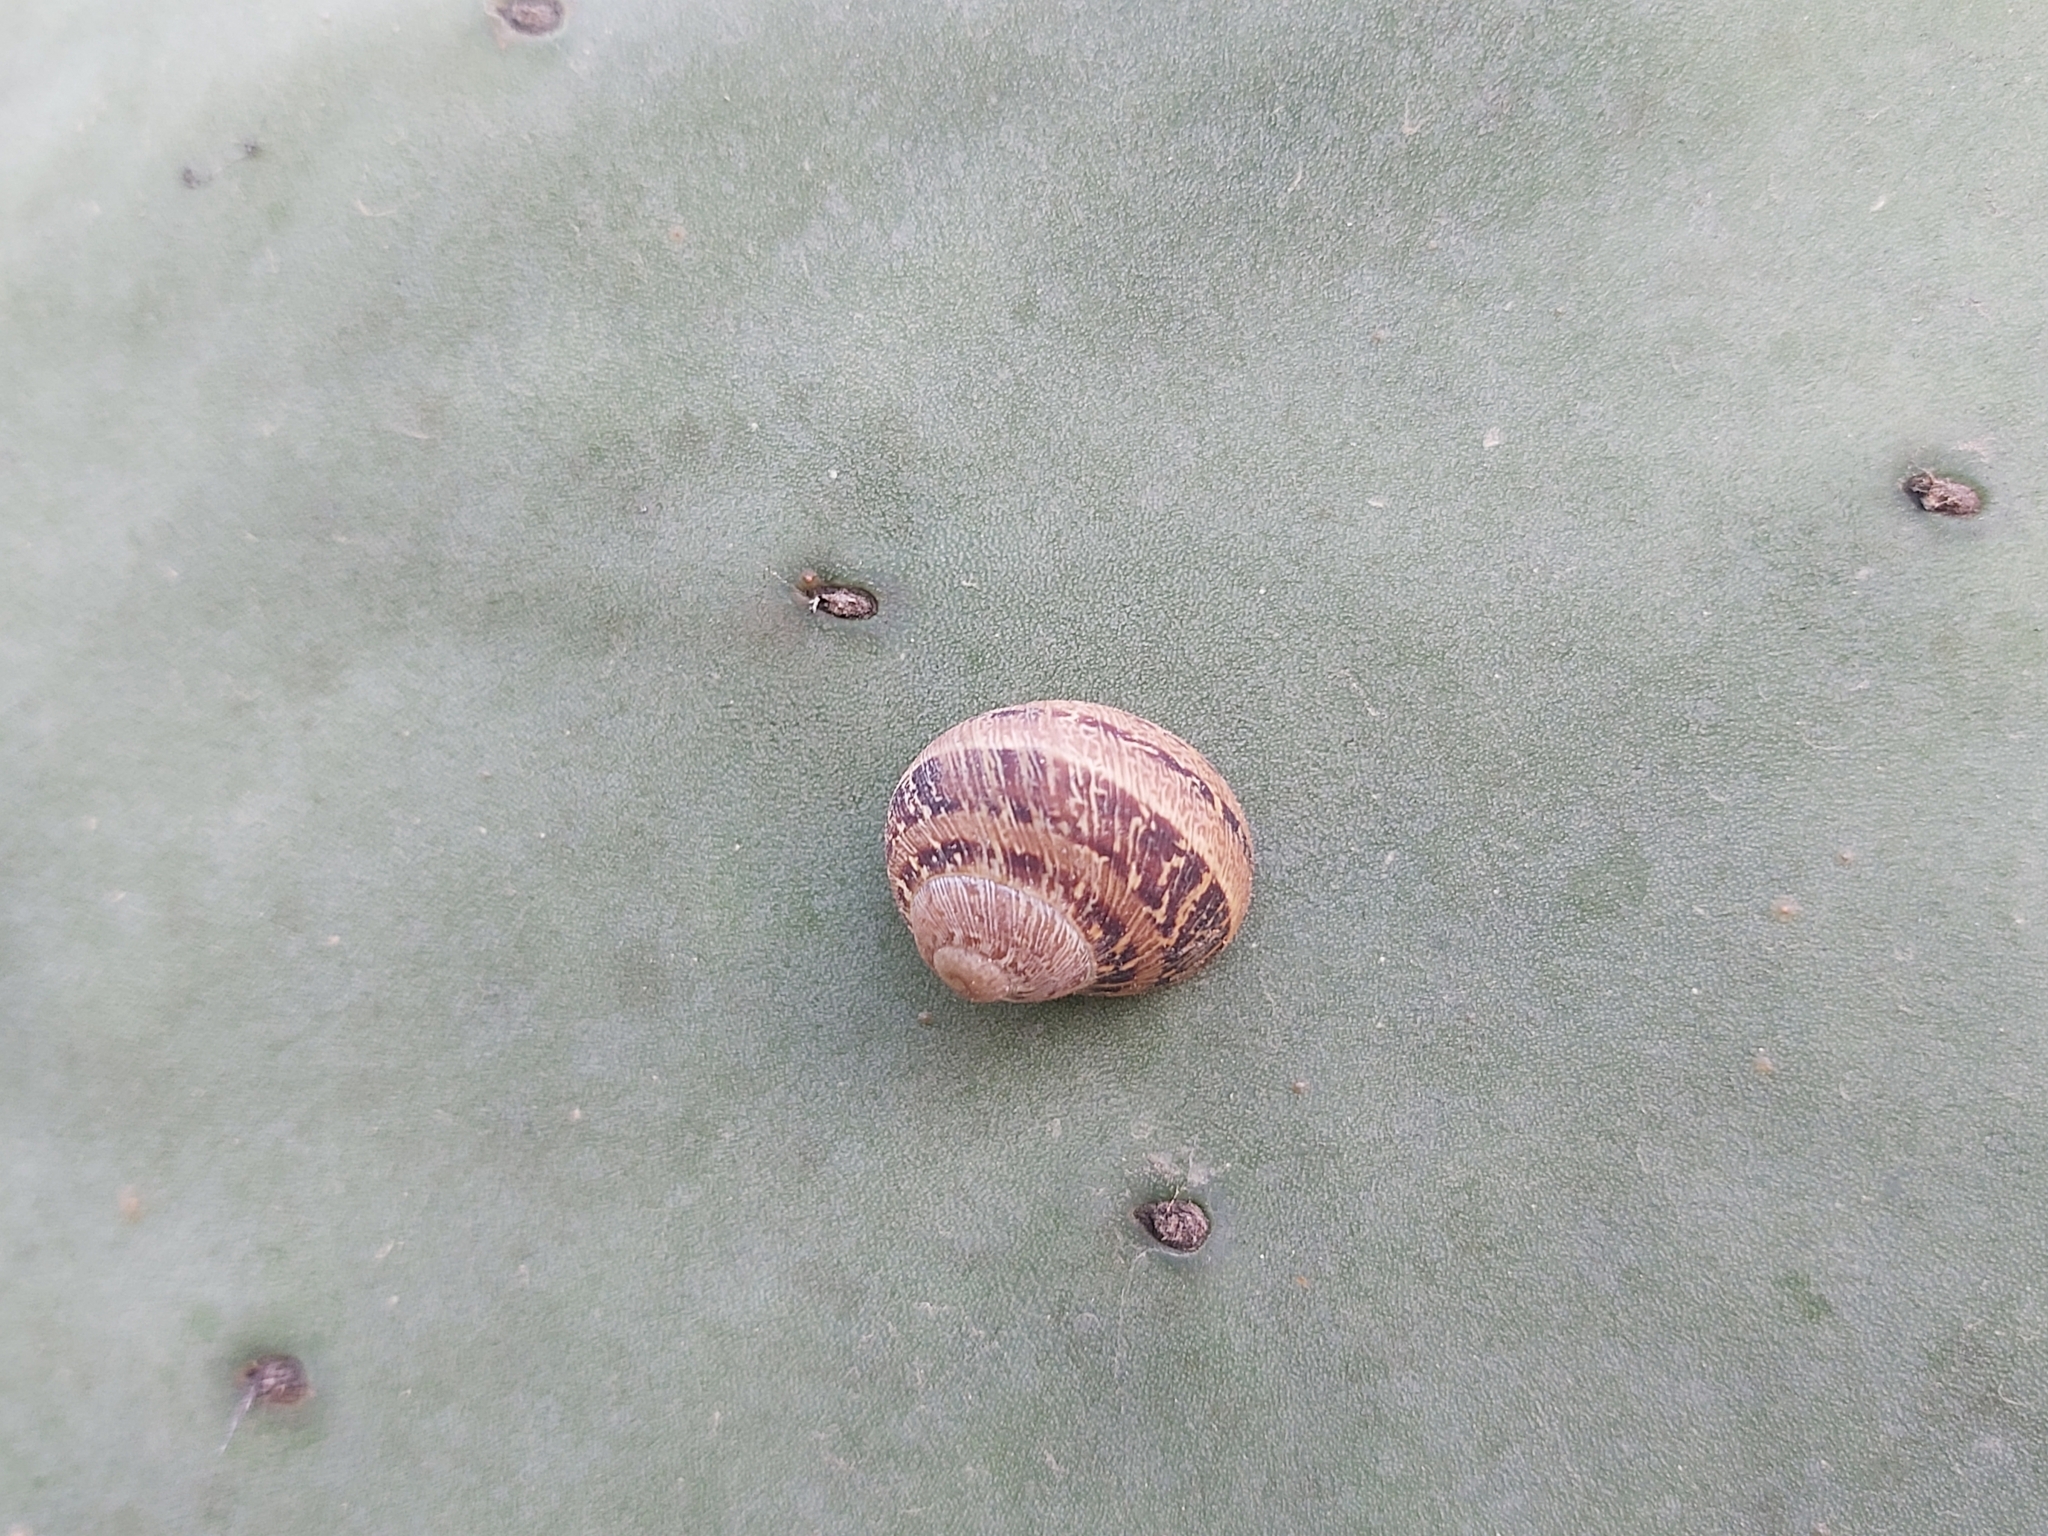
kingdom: Animalia
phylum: Mollusca
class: Gastropoda
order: Stylommatophora
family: Helicidae
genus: Cornu
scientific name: Cornu aspersum
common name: Brown garden snail
